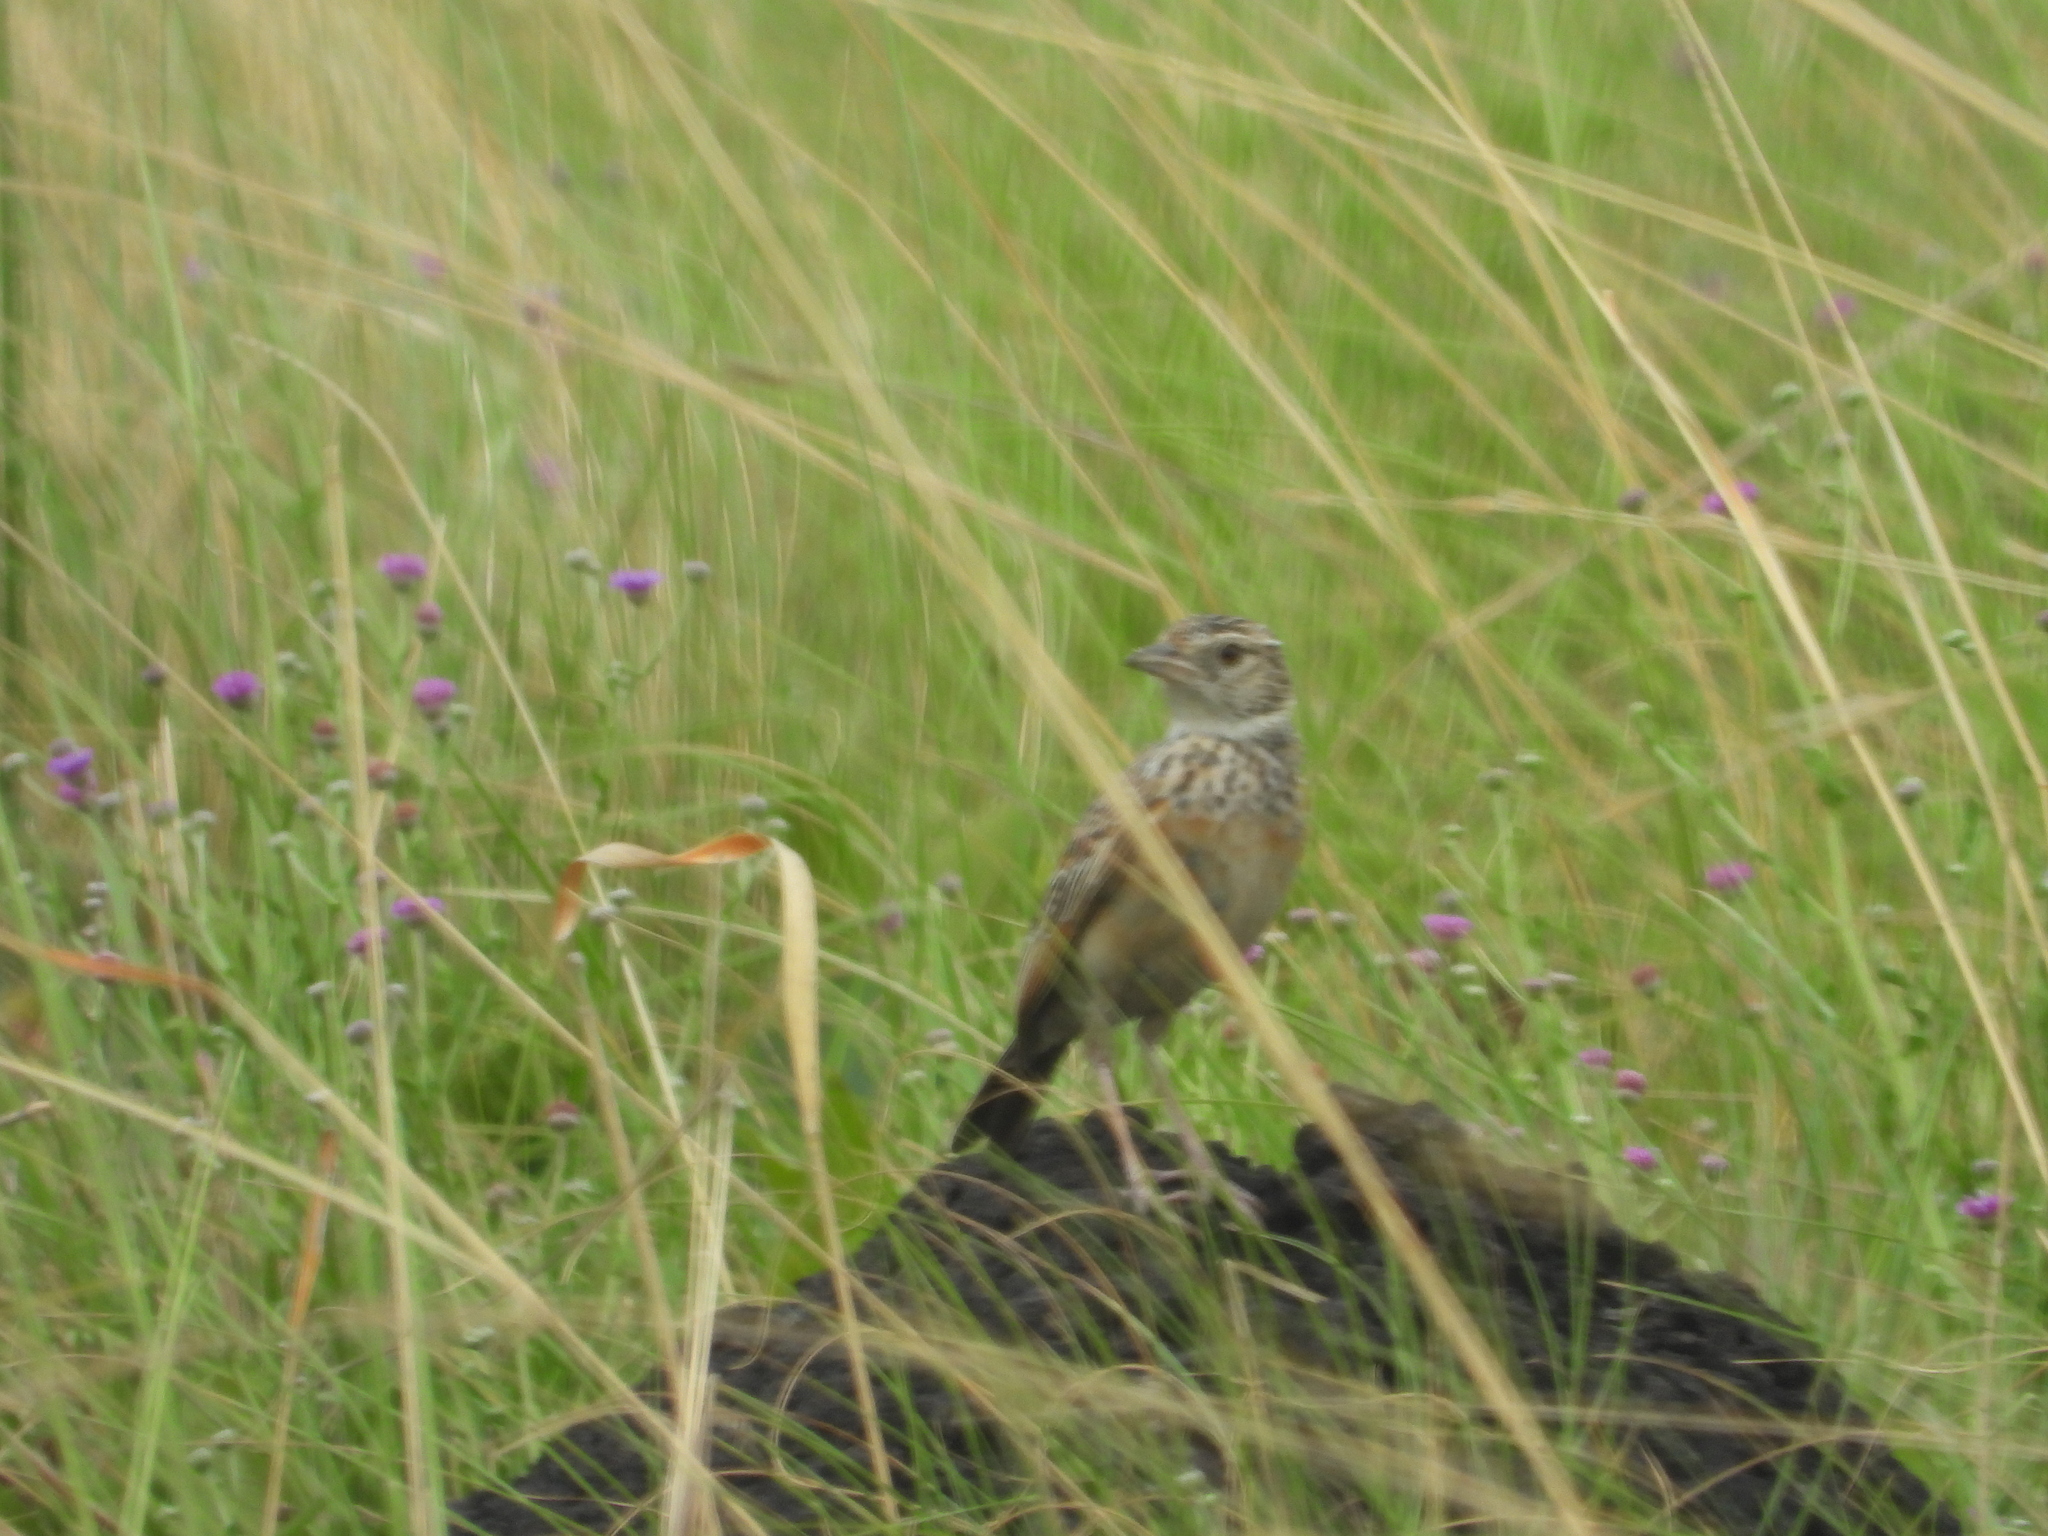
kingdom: Animalia
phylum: Chordata
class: Aves
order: Passeriformes
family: Alaudidae
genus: Mirafra
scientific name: Mirafra africana
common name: Rufous-naped lark
